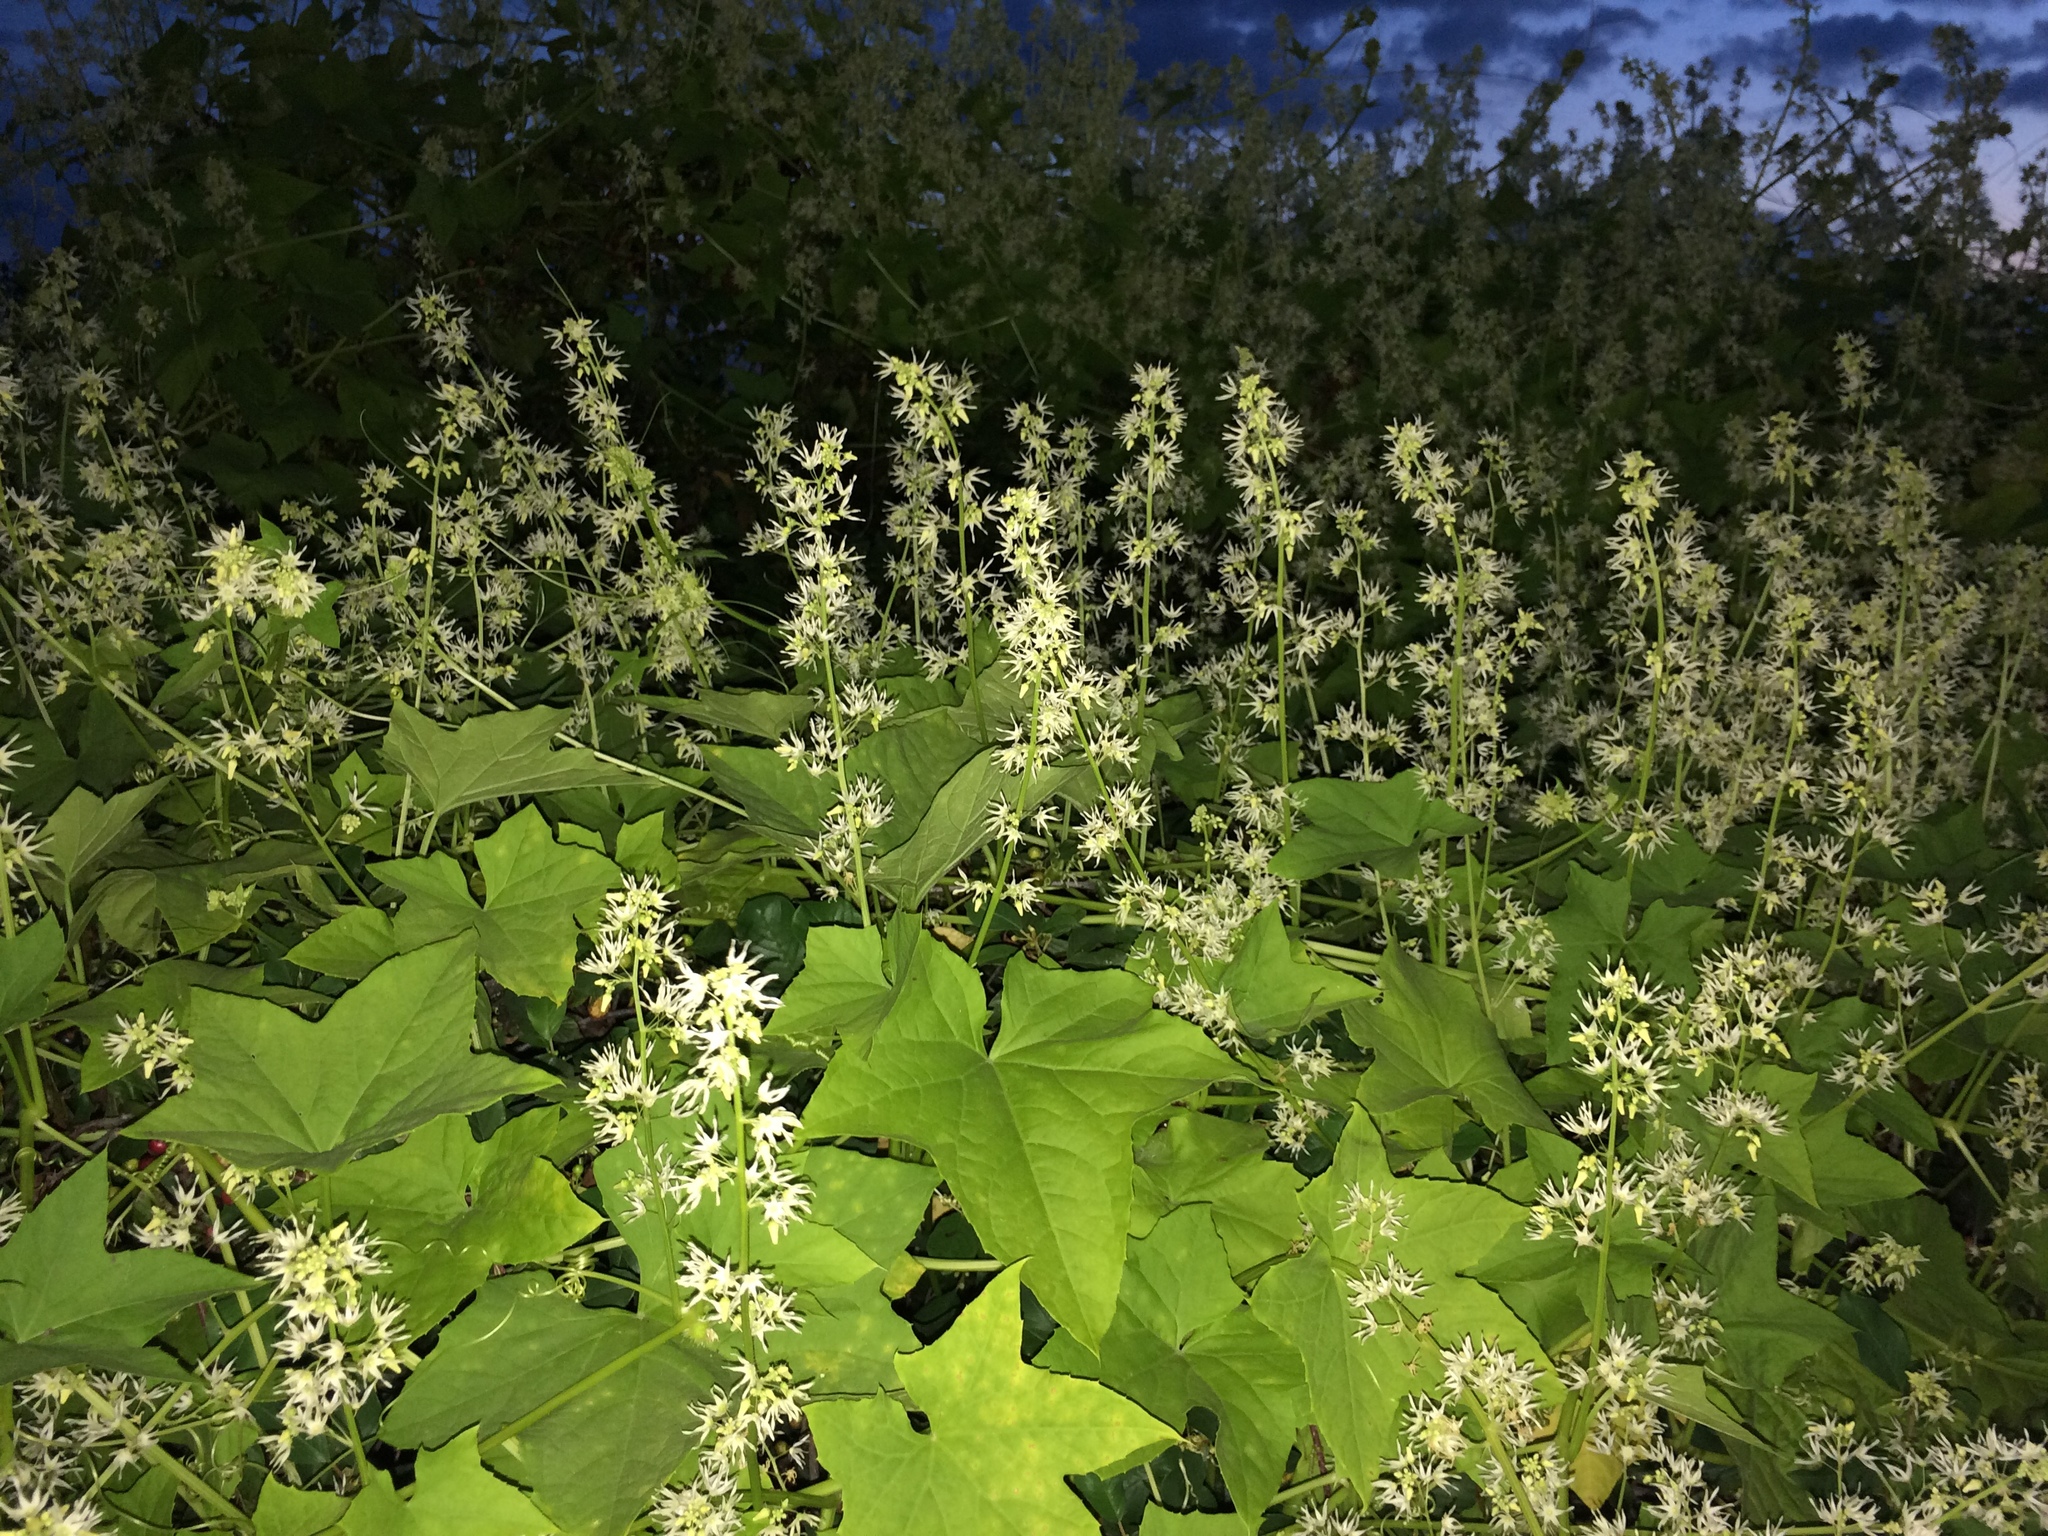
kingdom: Plantae
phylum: Tracheophyta
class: Magnoliopsida
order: Cucurbitales
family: Cucurbitaceae
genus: Echinocystis
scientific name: Echinocystis lobata
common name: Wild cucumber
